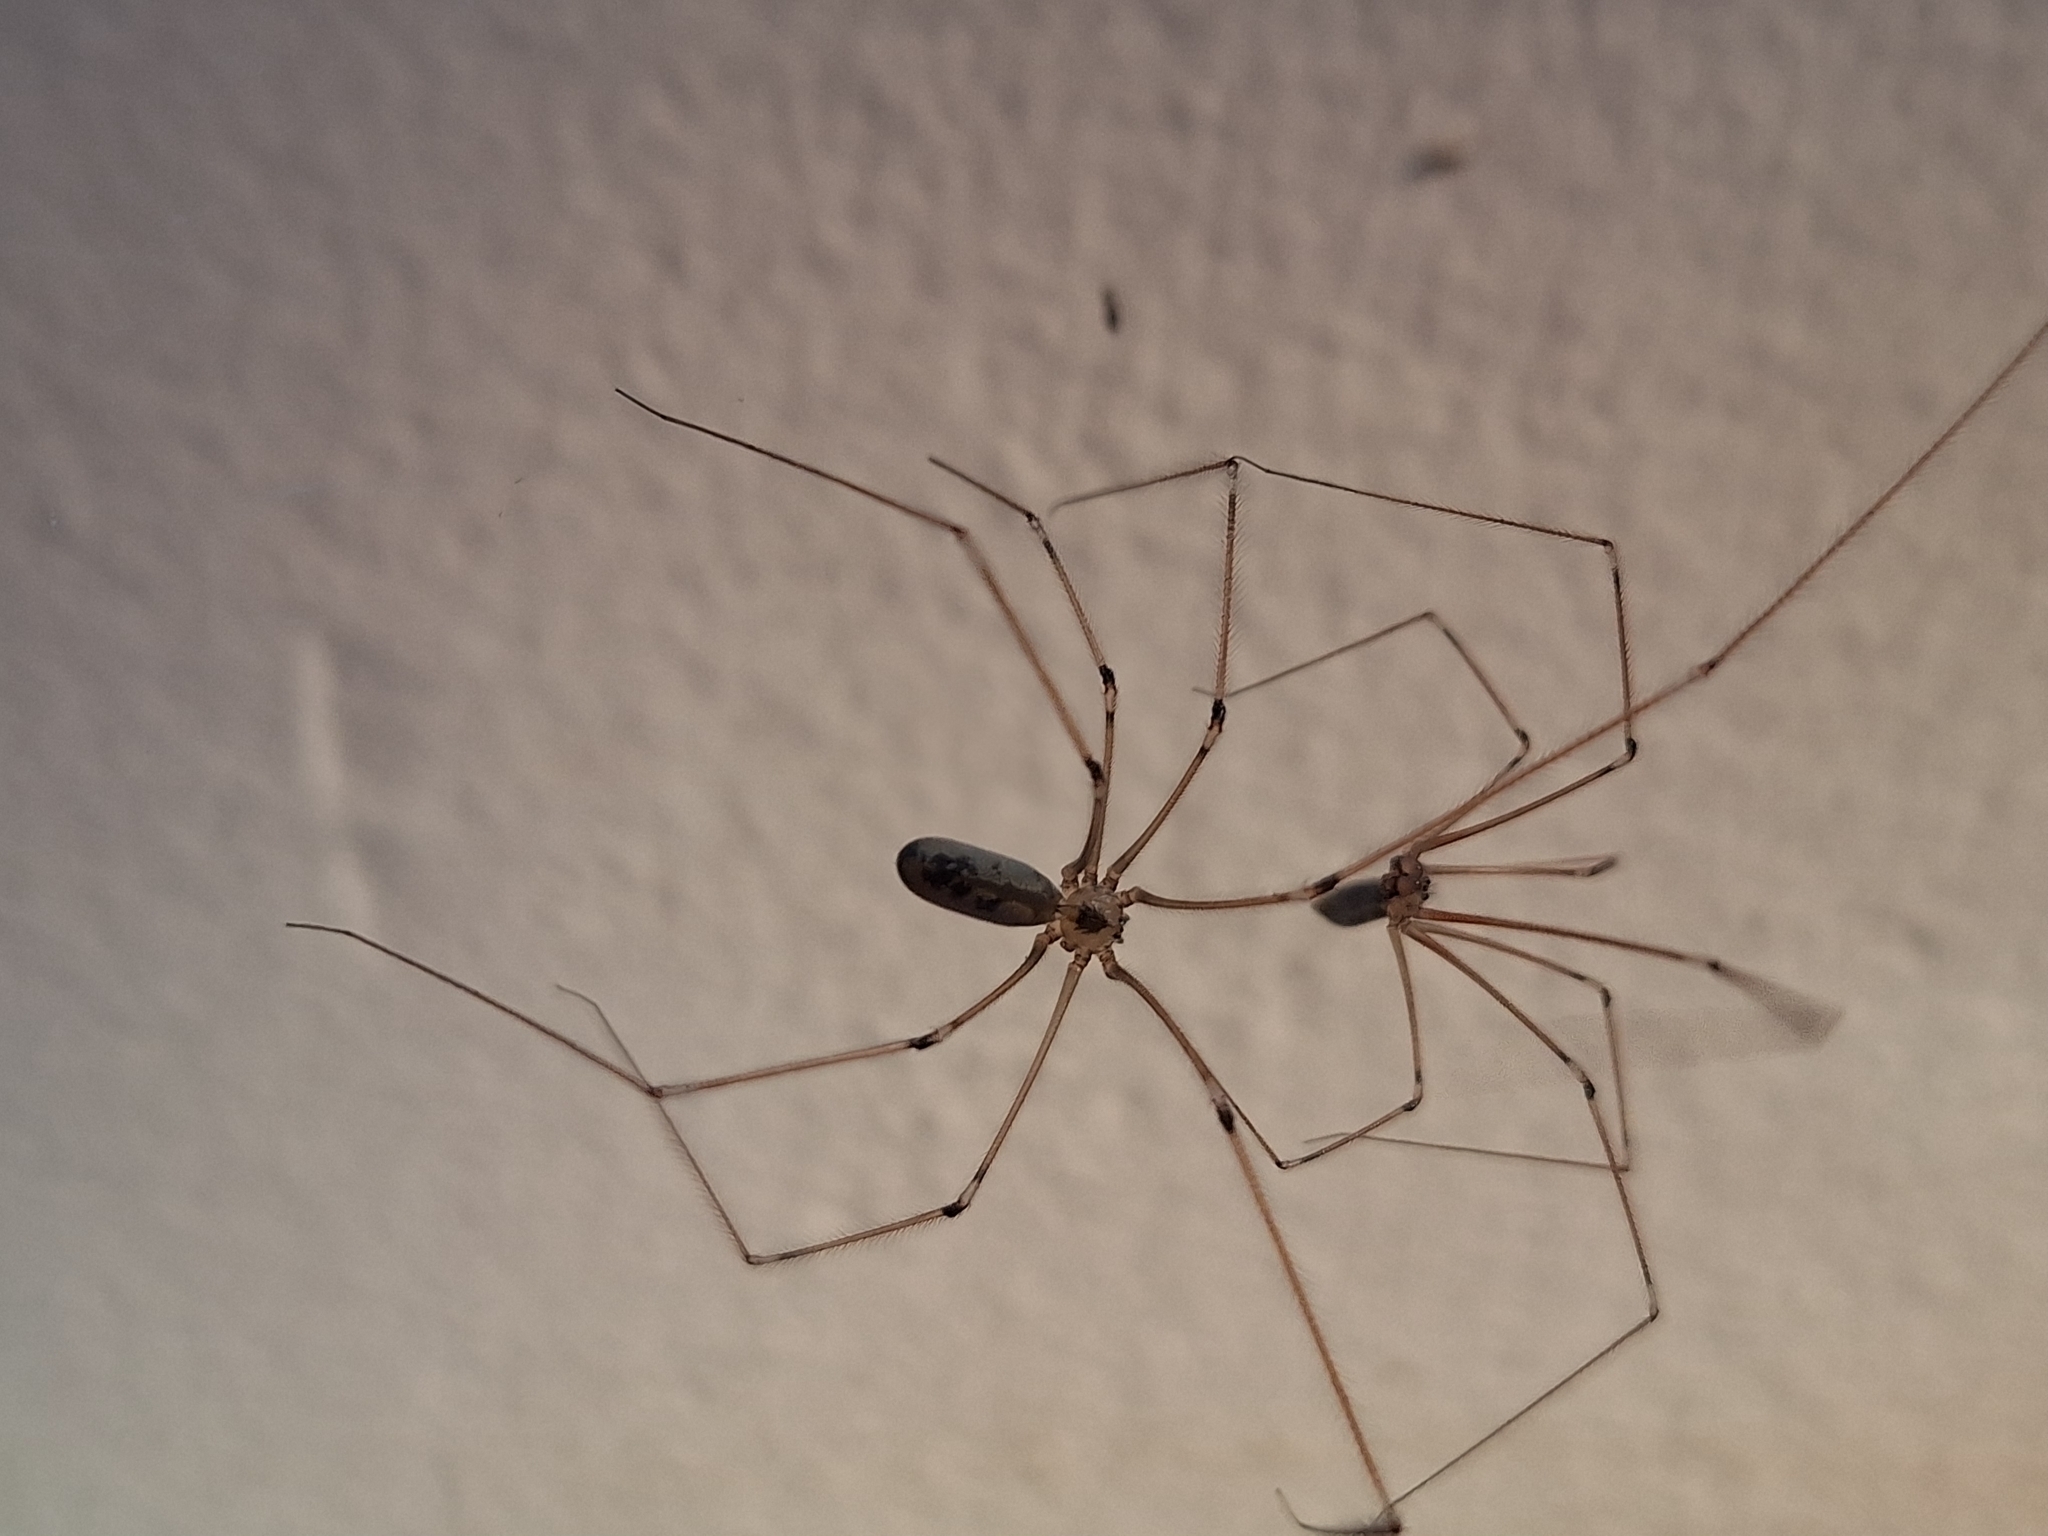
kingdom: Animalia
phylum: Arthropoda
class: Arachnida
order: Araneae
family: Pholcidae
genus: Pholcus
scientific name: Pholcus phalangioides
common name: Longbodied cellar spider
